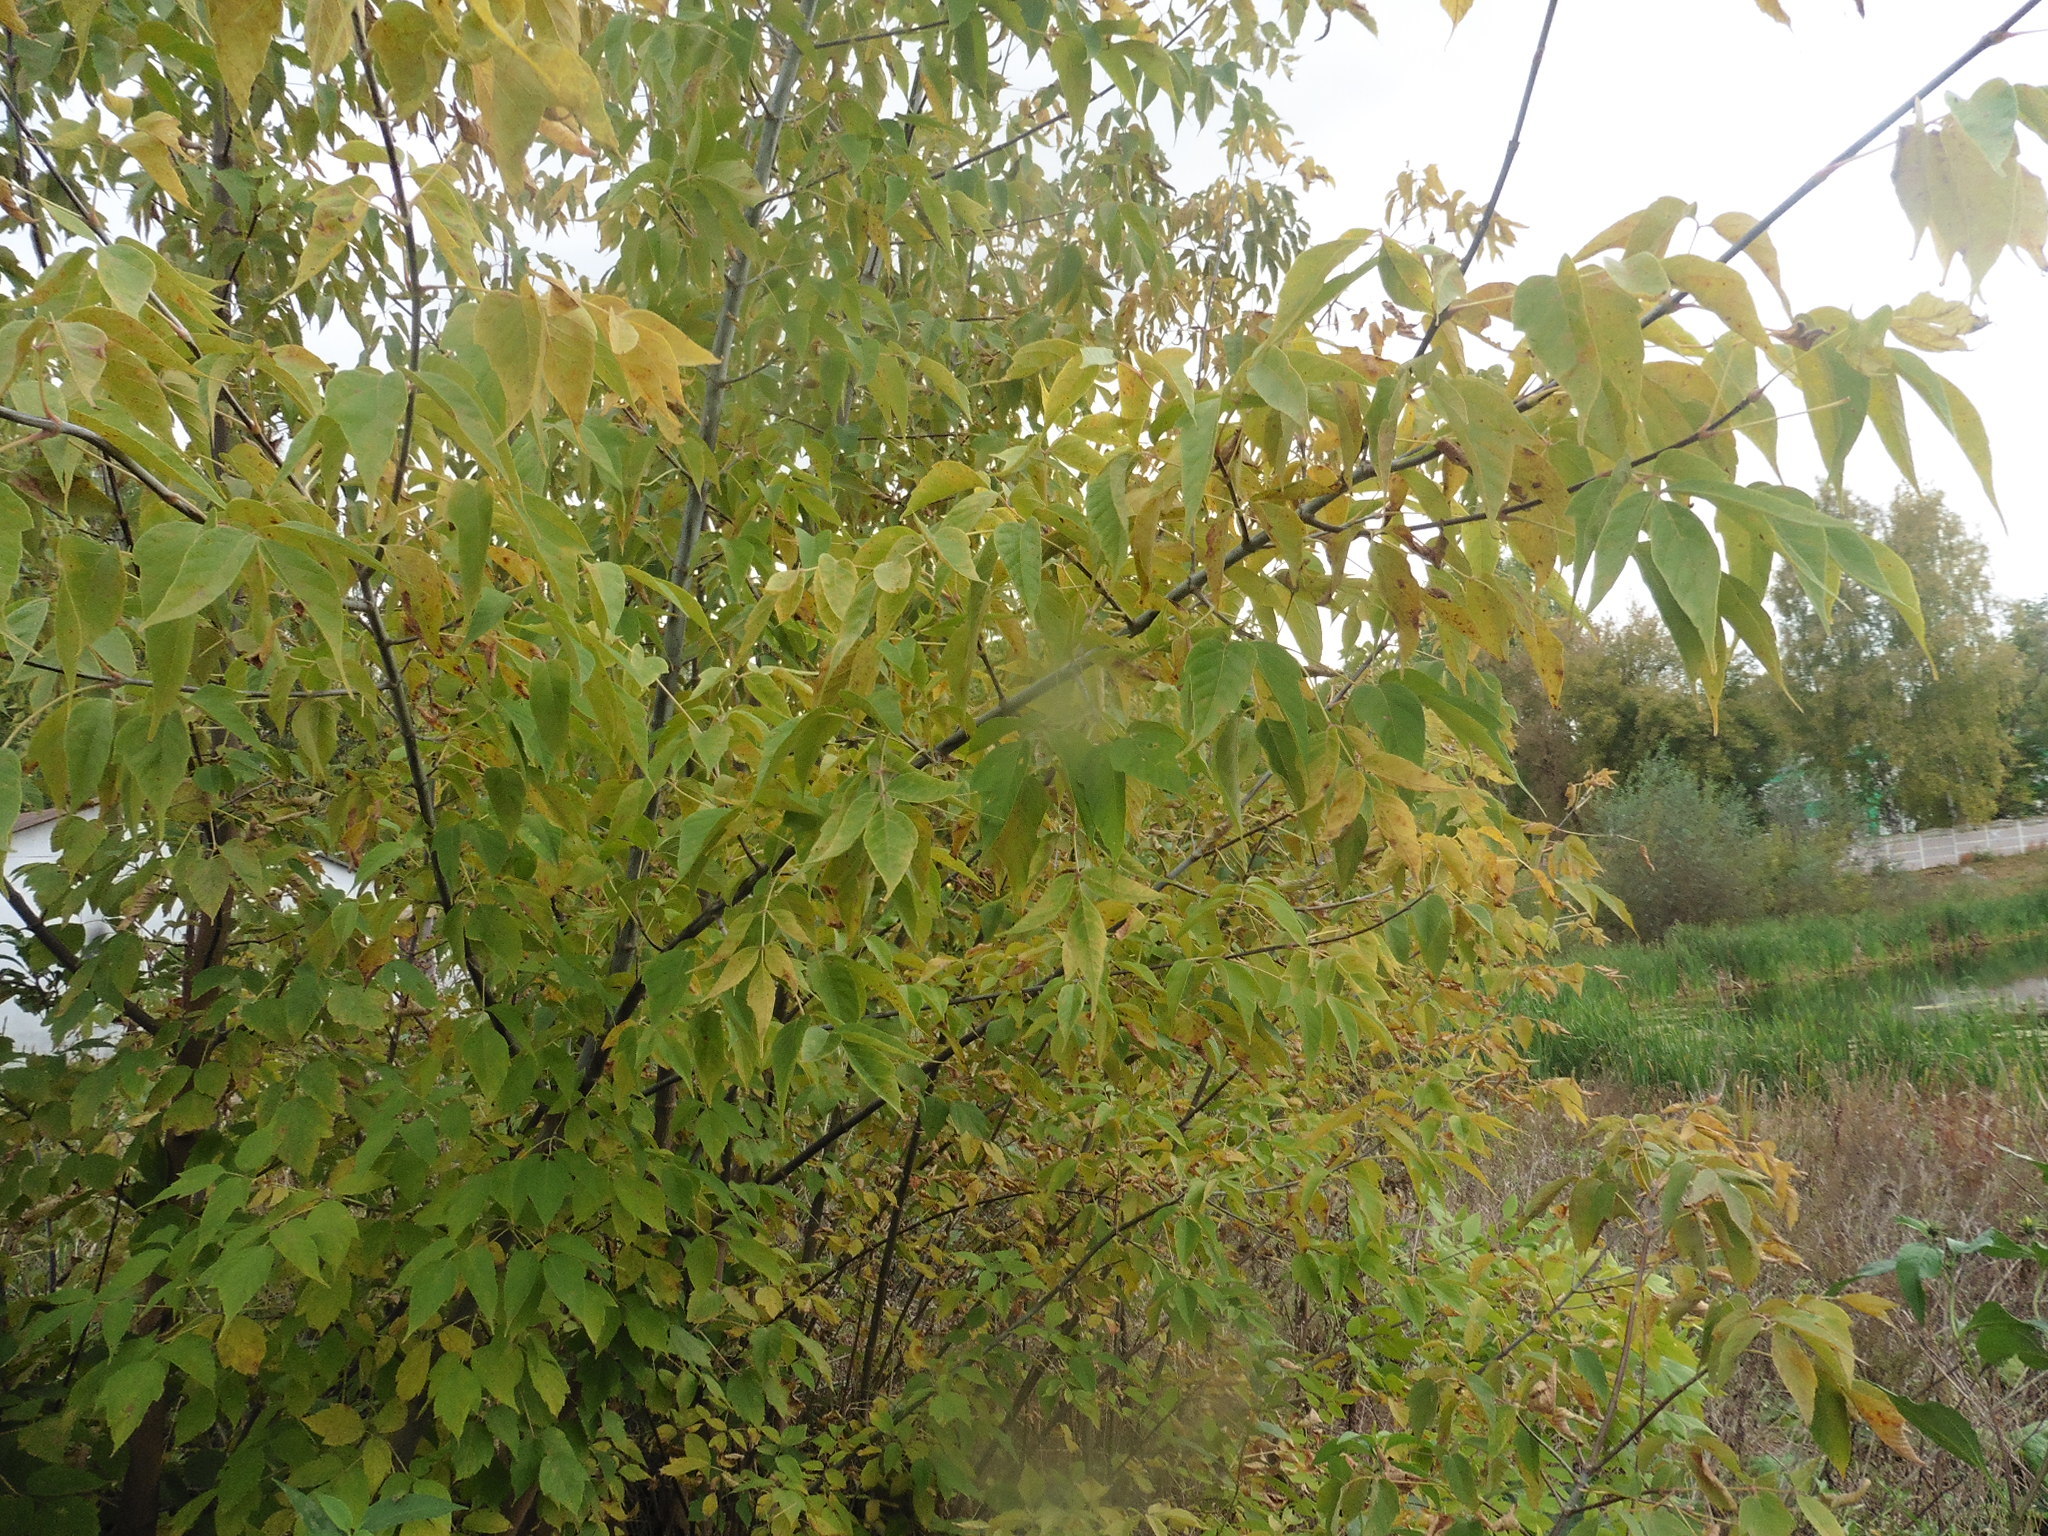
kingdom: Plantae
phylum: Tracheophyta
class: Magnoliopsida
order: Sapindales
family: Sapindaceae
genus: Acer
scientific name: Acer negundo
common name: Ashleaf maple
